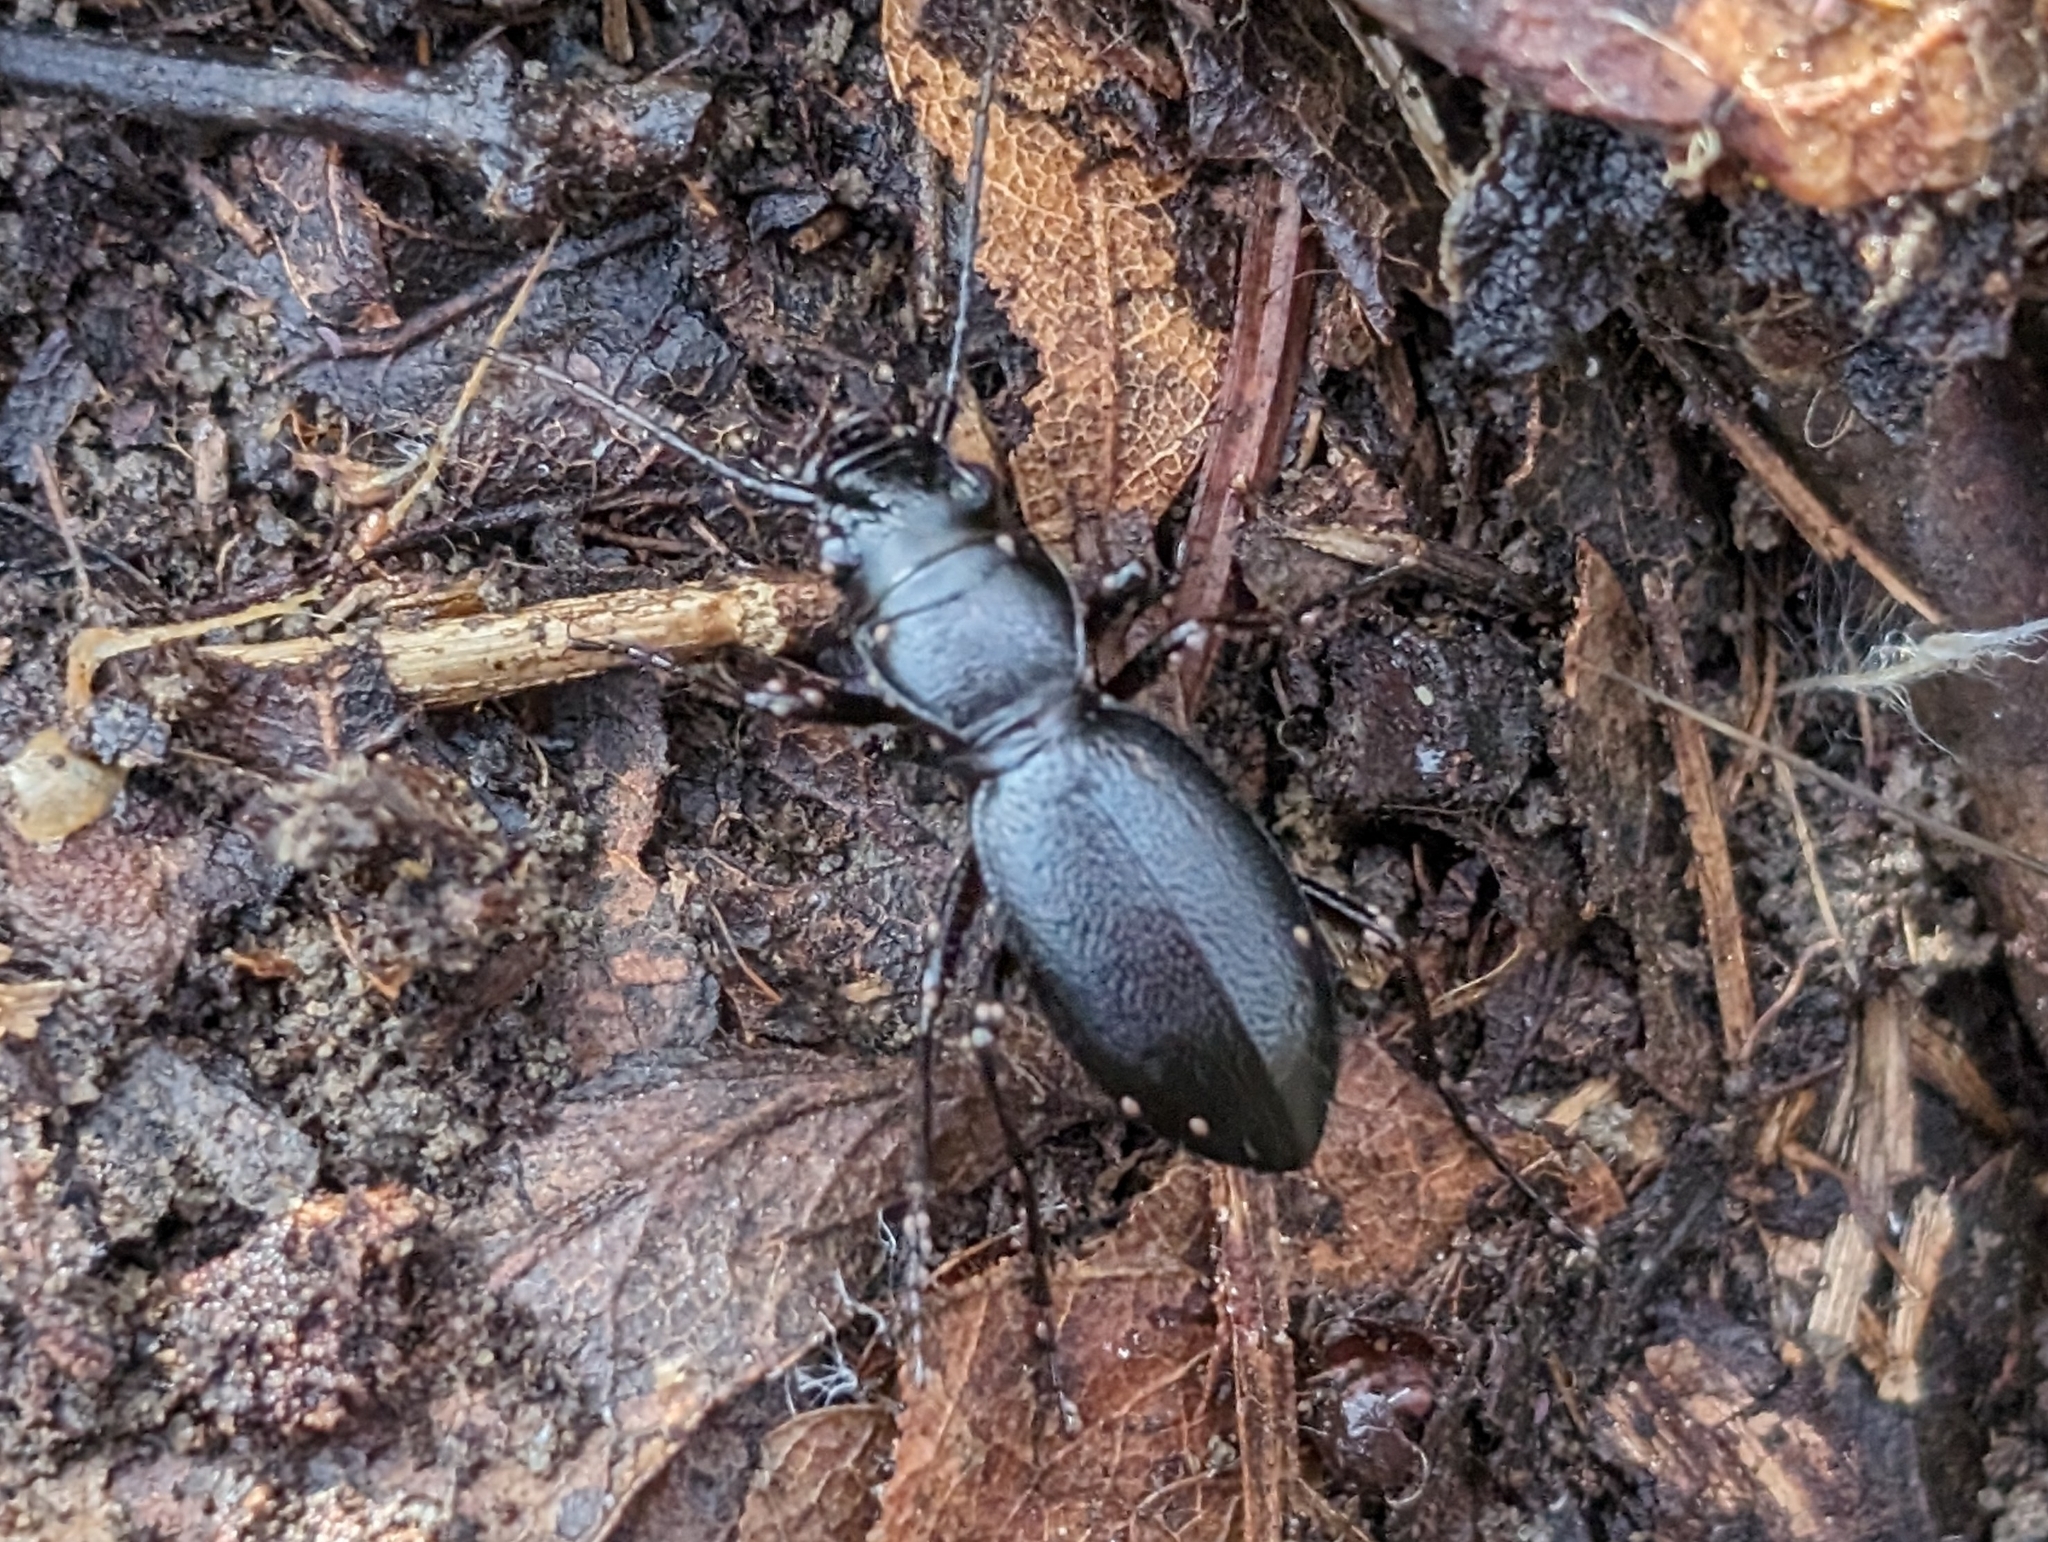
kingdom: Animalia
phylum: Arthropoda
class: Insecta
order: Coleoptera
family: Carabidae
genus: Omus
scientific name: Omus californicus
